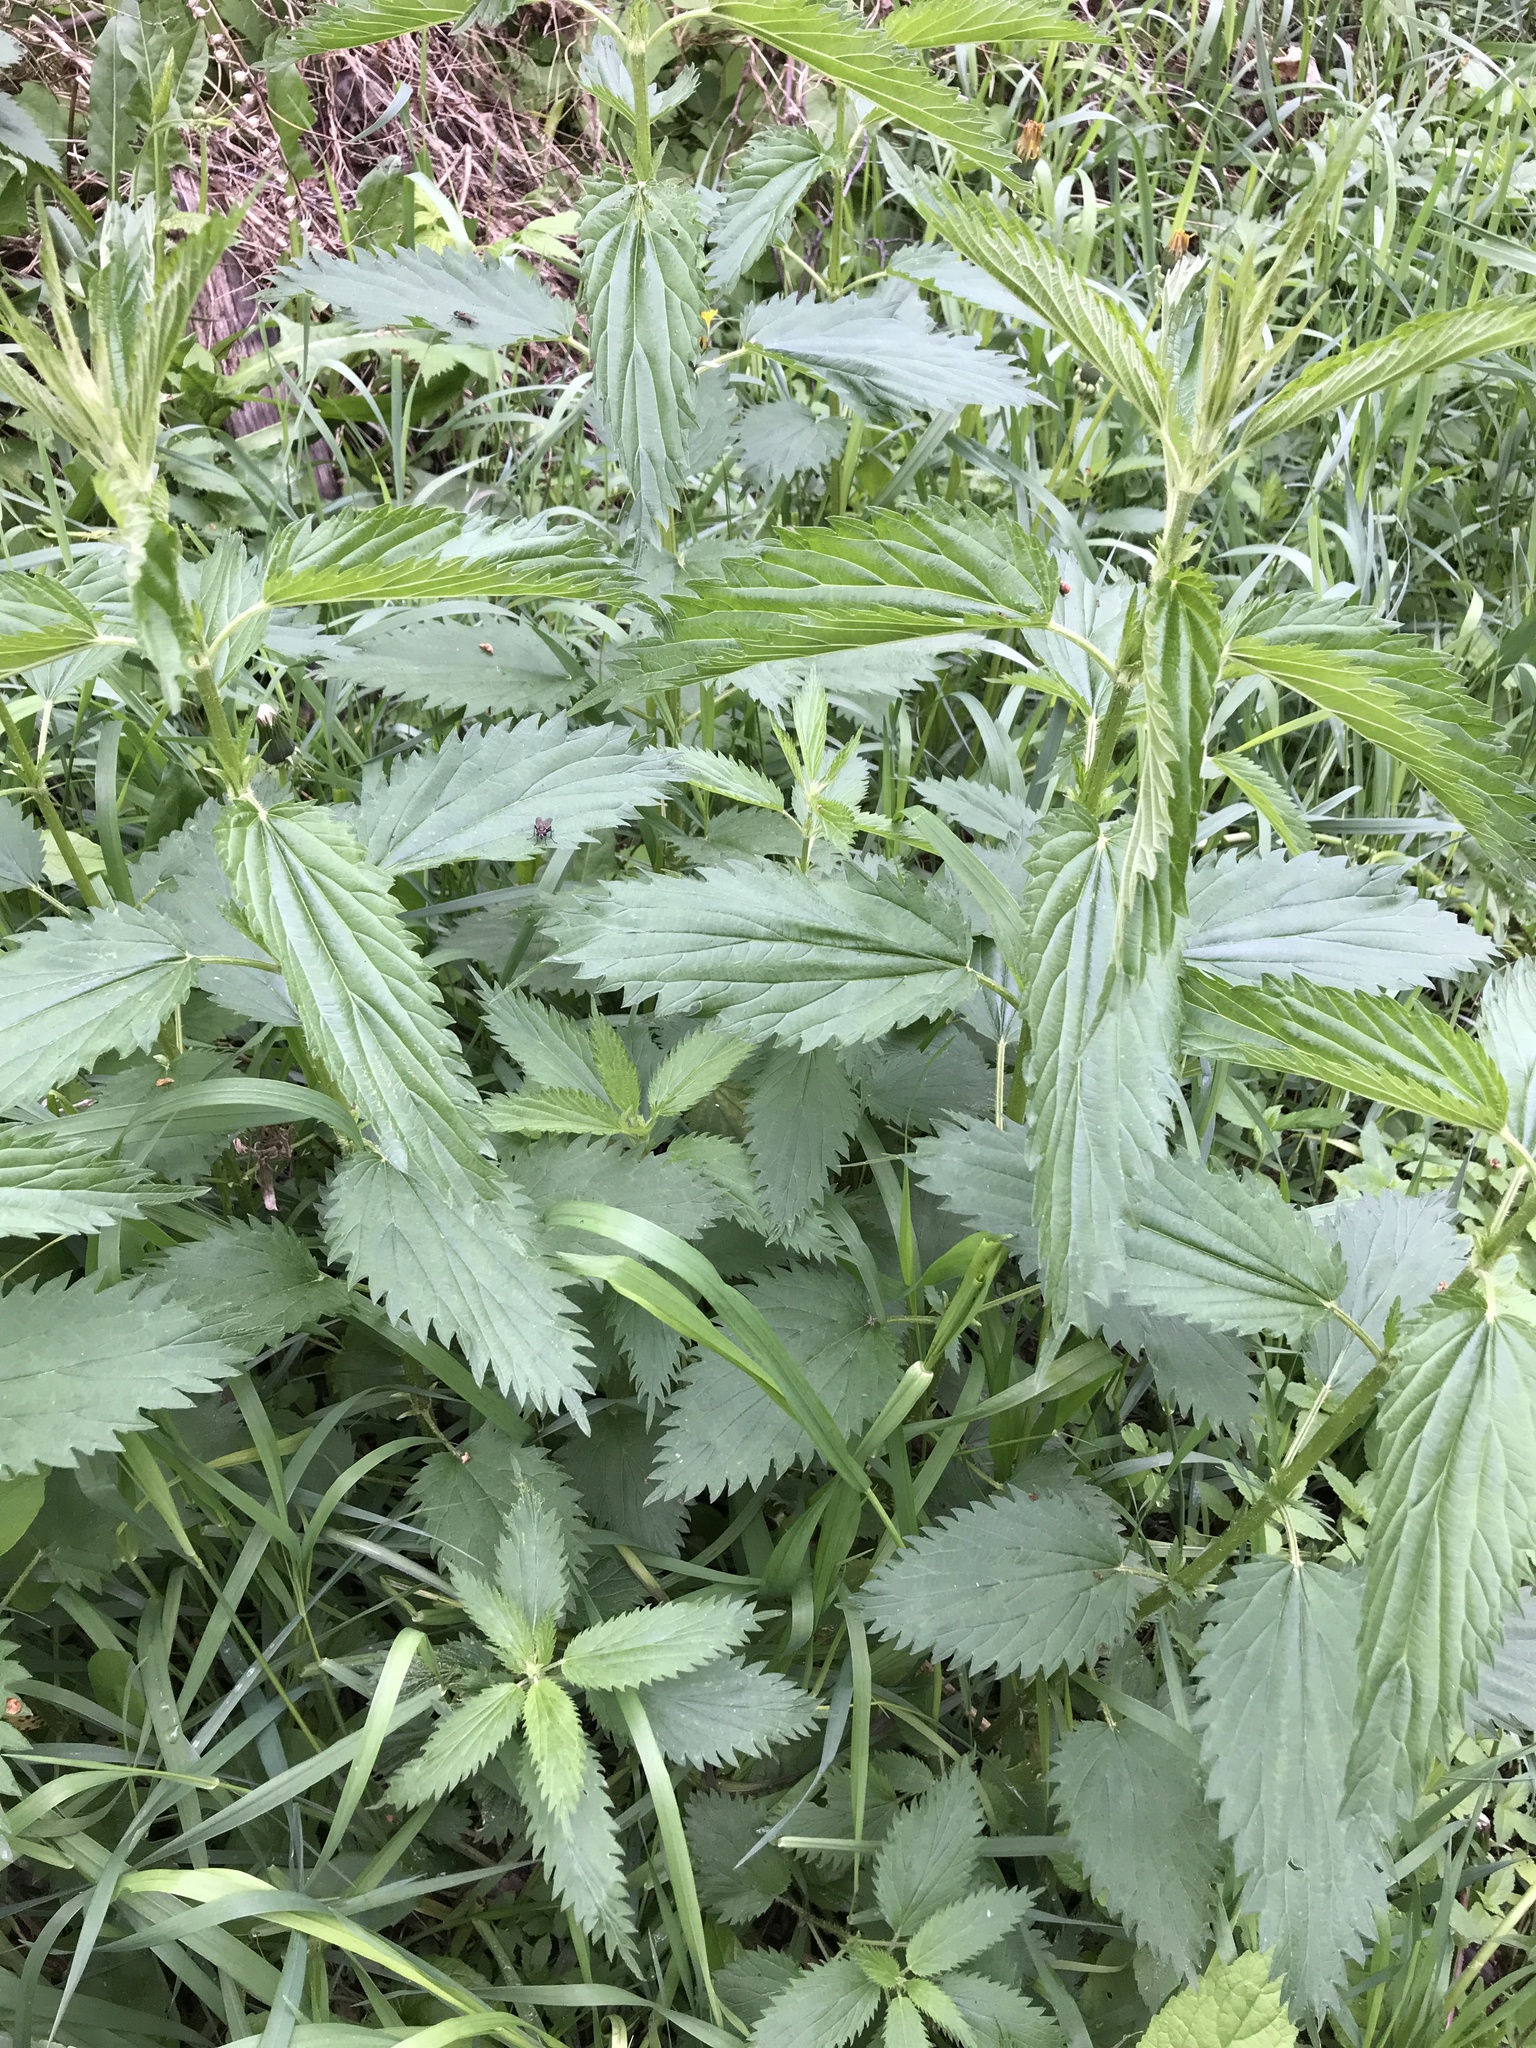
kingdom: Plantae
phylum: Tracheophyta
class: Magnoliopsida
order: Rosales
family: Urticaceae
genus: Urtica
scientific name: Urtica dioica
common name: Common nettle
